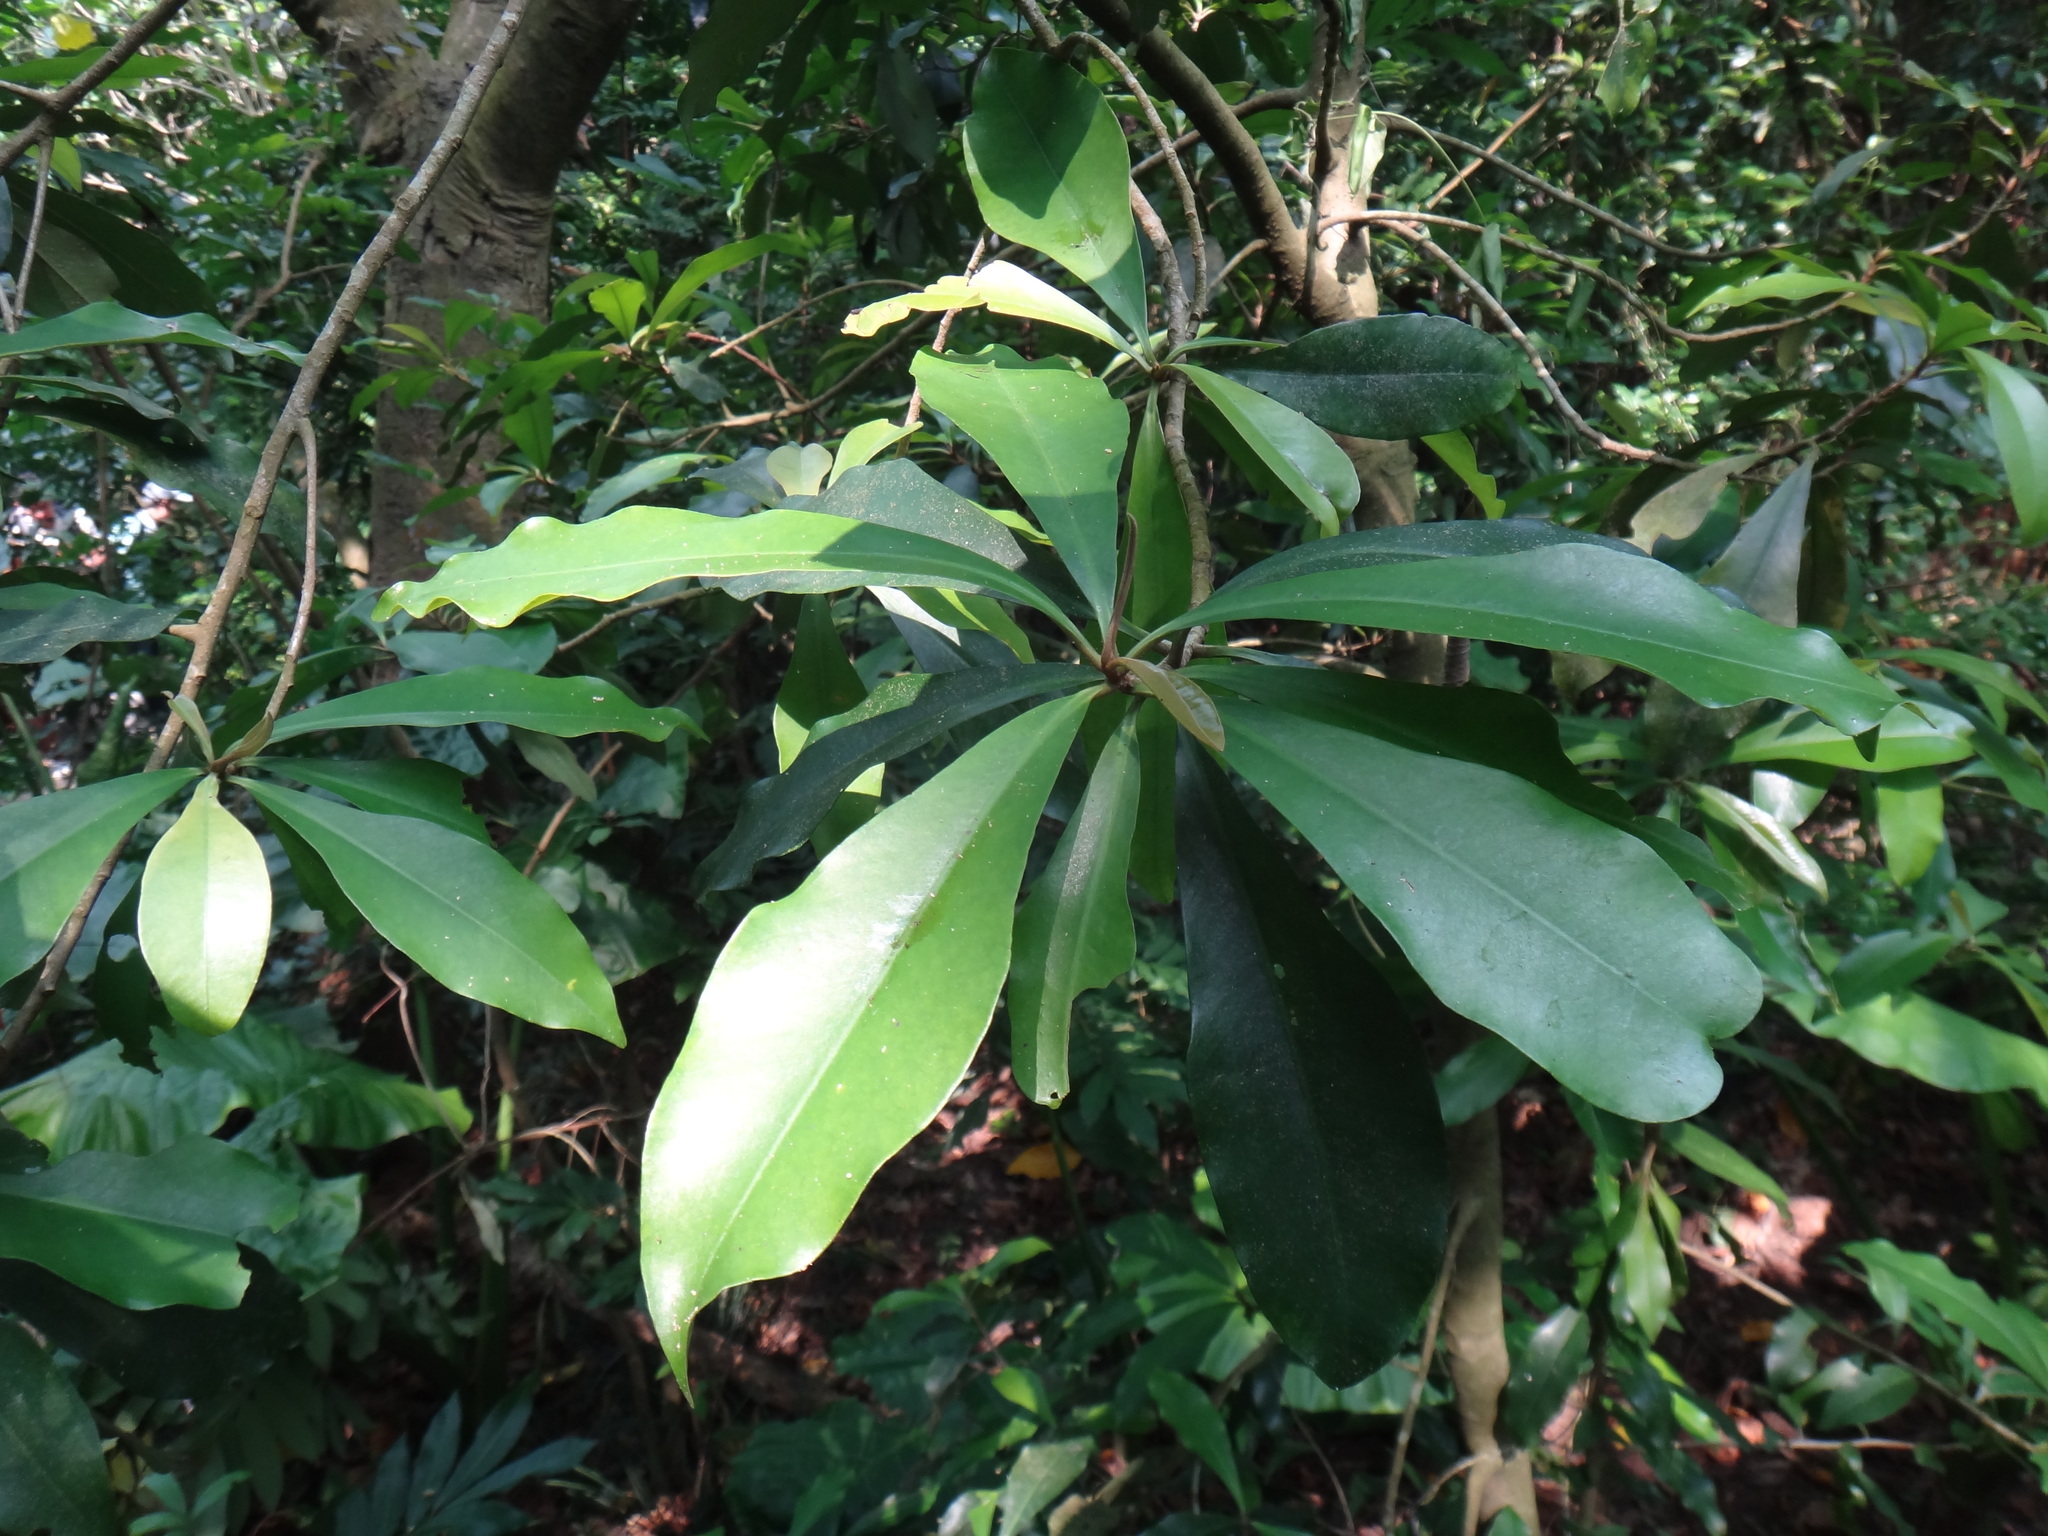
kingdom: Plantae
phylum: Tracheophyta
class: Magnoliopsida
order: Ericales
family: Primulaceae
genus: Ardisia
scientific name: Ardisia sieboldii
